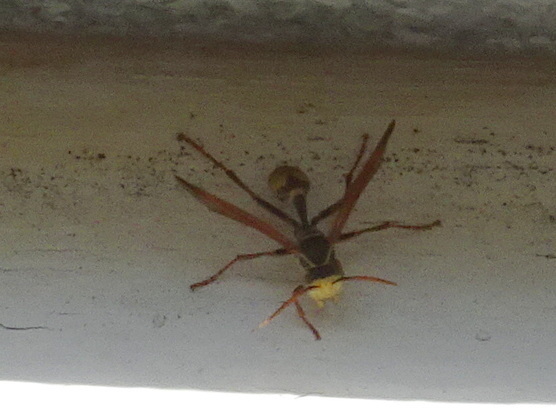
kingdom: Animalia
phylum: Arthropoda
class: Insecta
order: Hymenoptera
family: Vespidae
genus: Mischocyttarus
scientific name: Mischocyttarus flavitarsis
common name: Wasp
